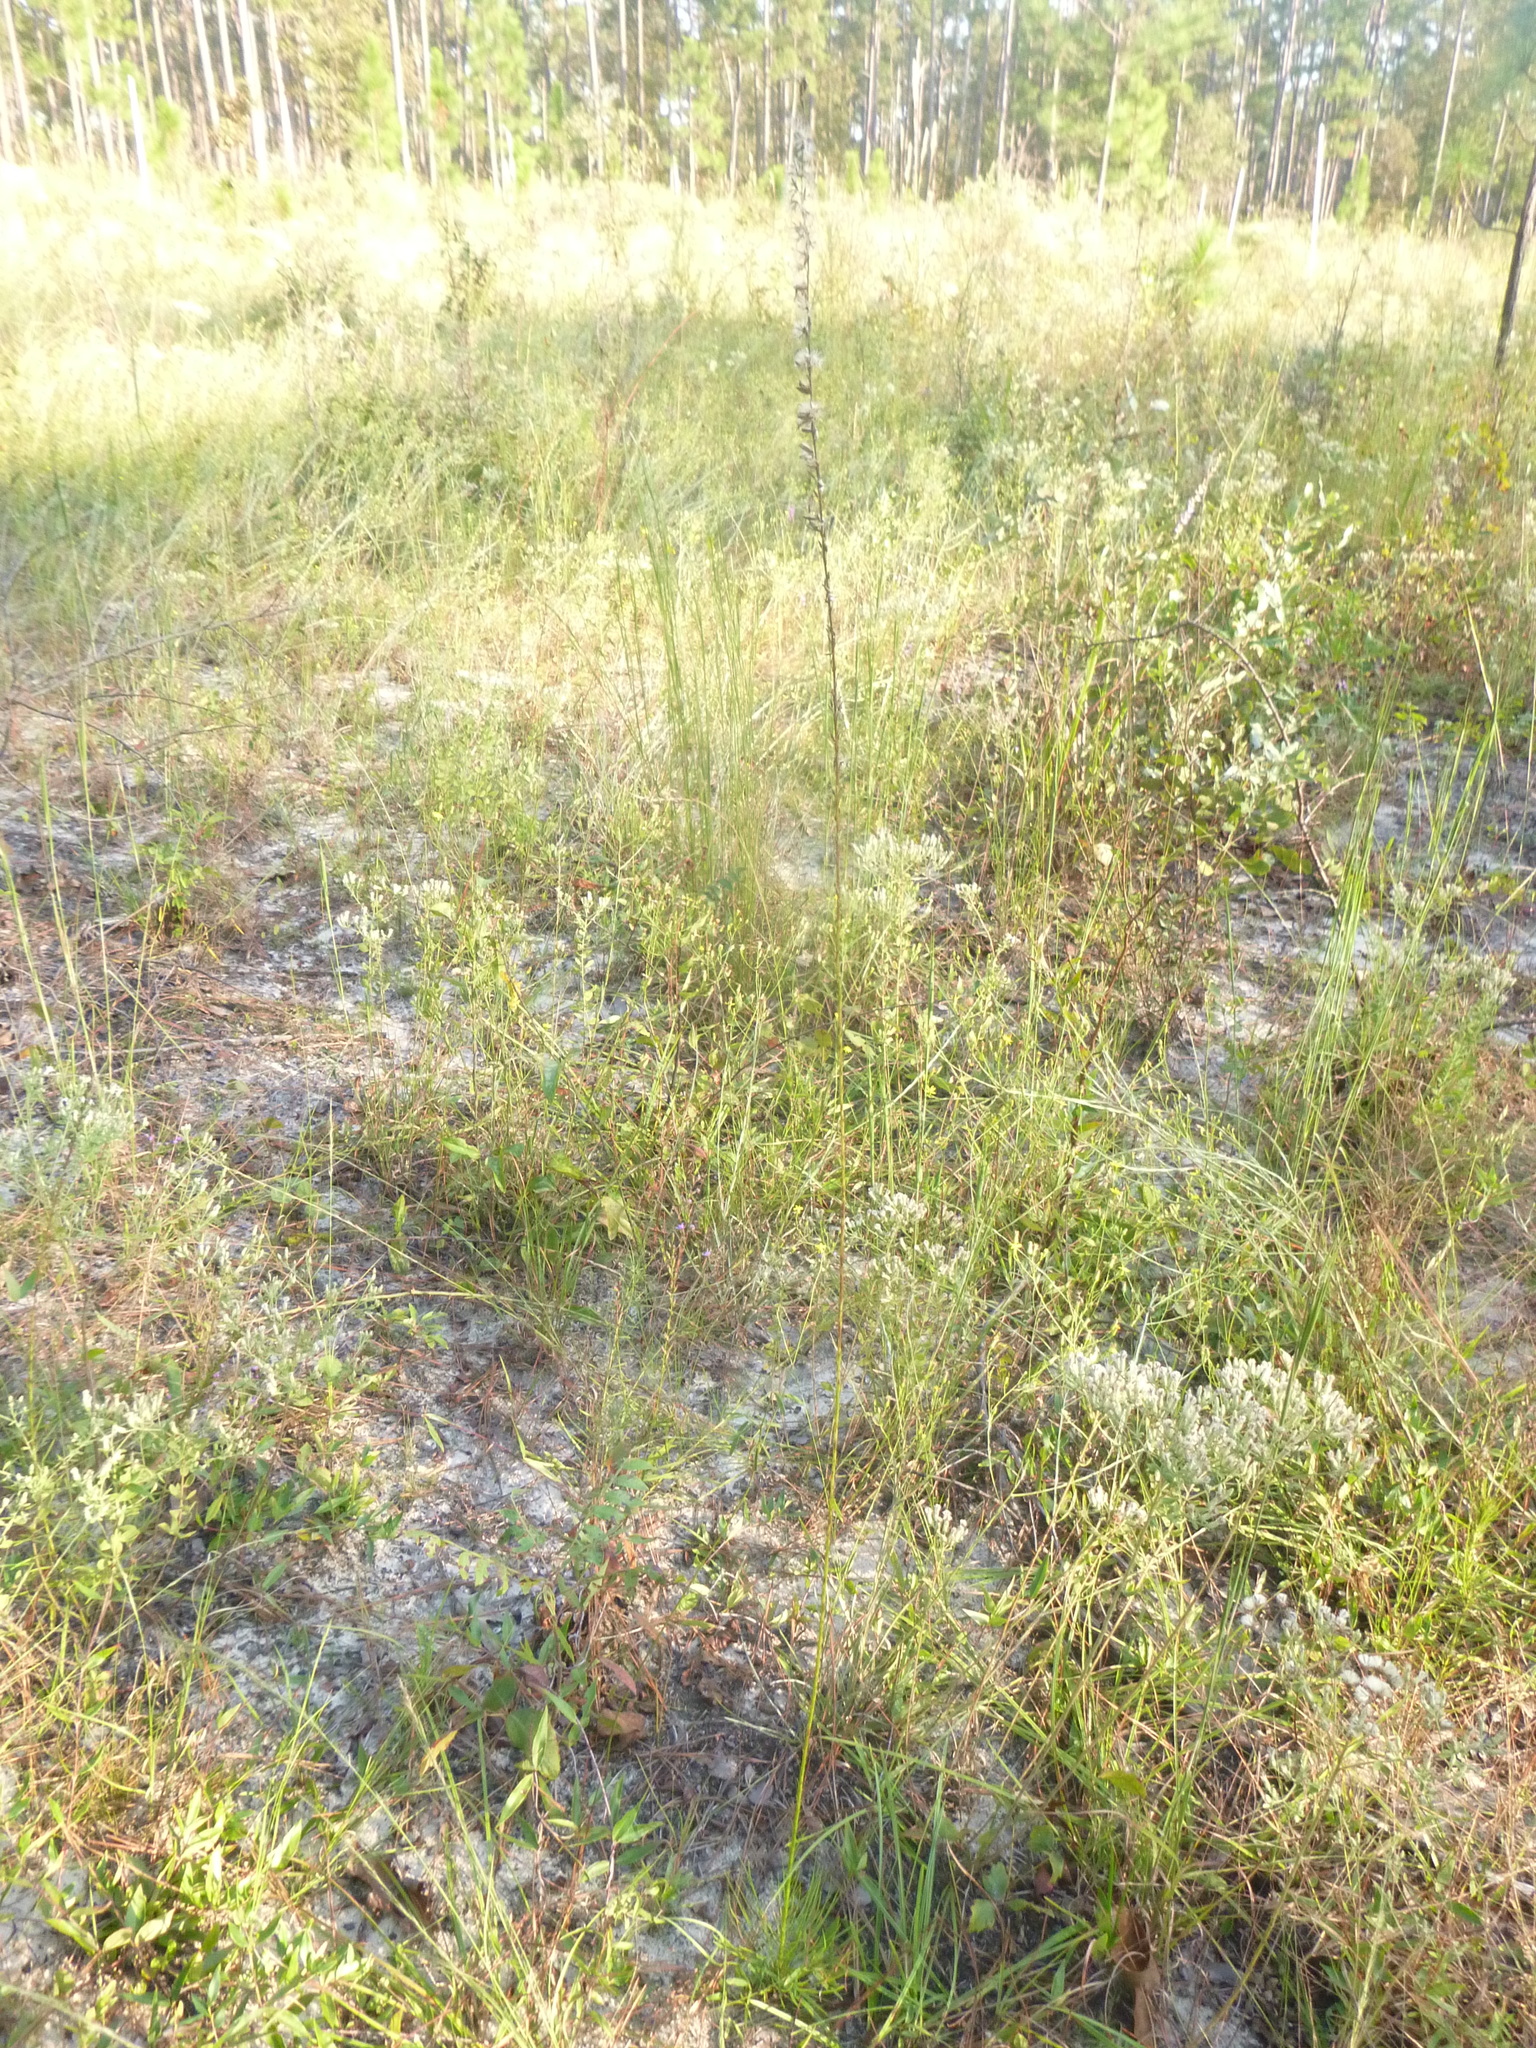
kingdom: Plantae
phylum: Tracheophyta
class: Magnoliopsida
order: Asterales
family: Asteraceae
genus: Liatris
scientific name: Liatris tenuifolia
